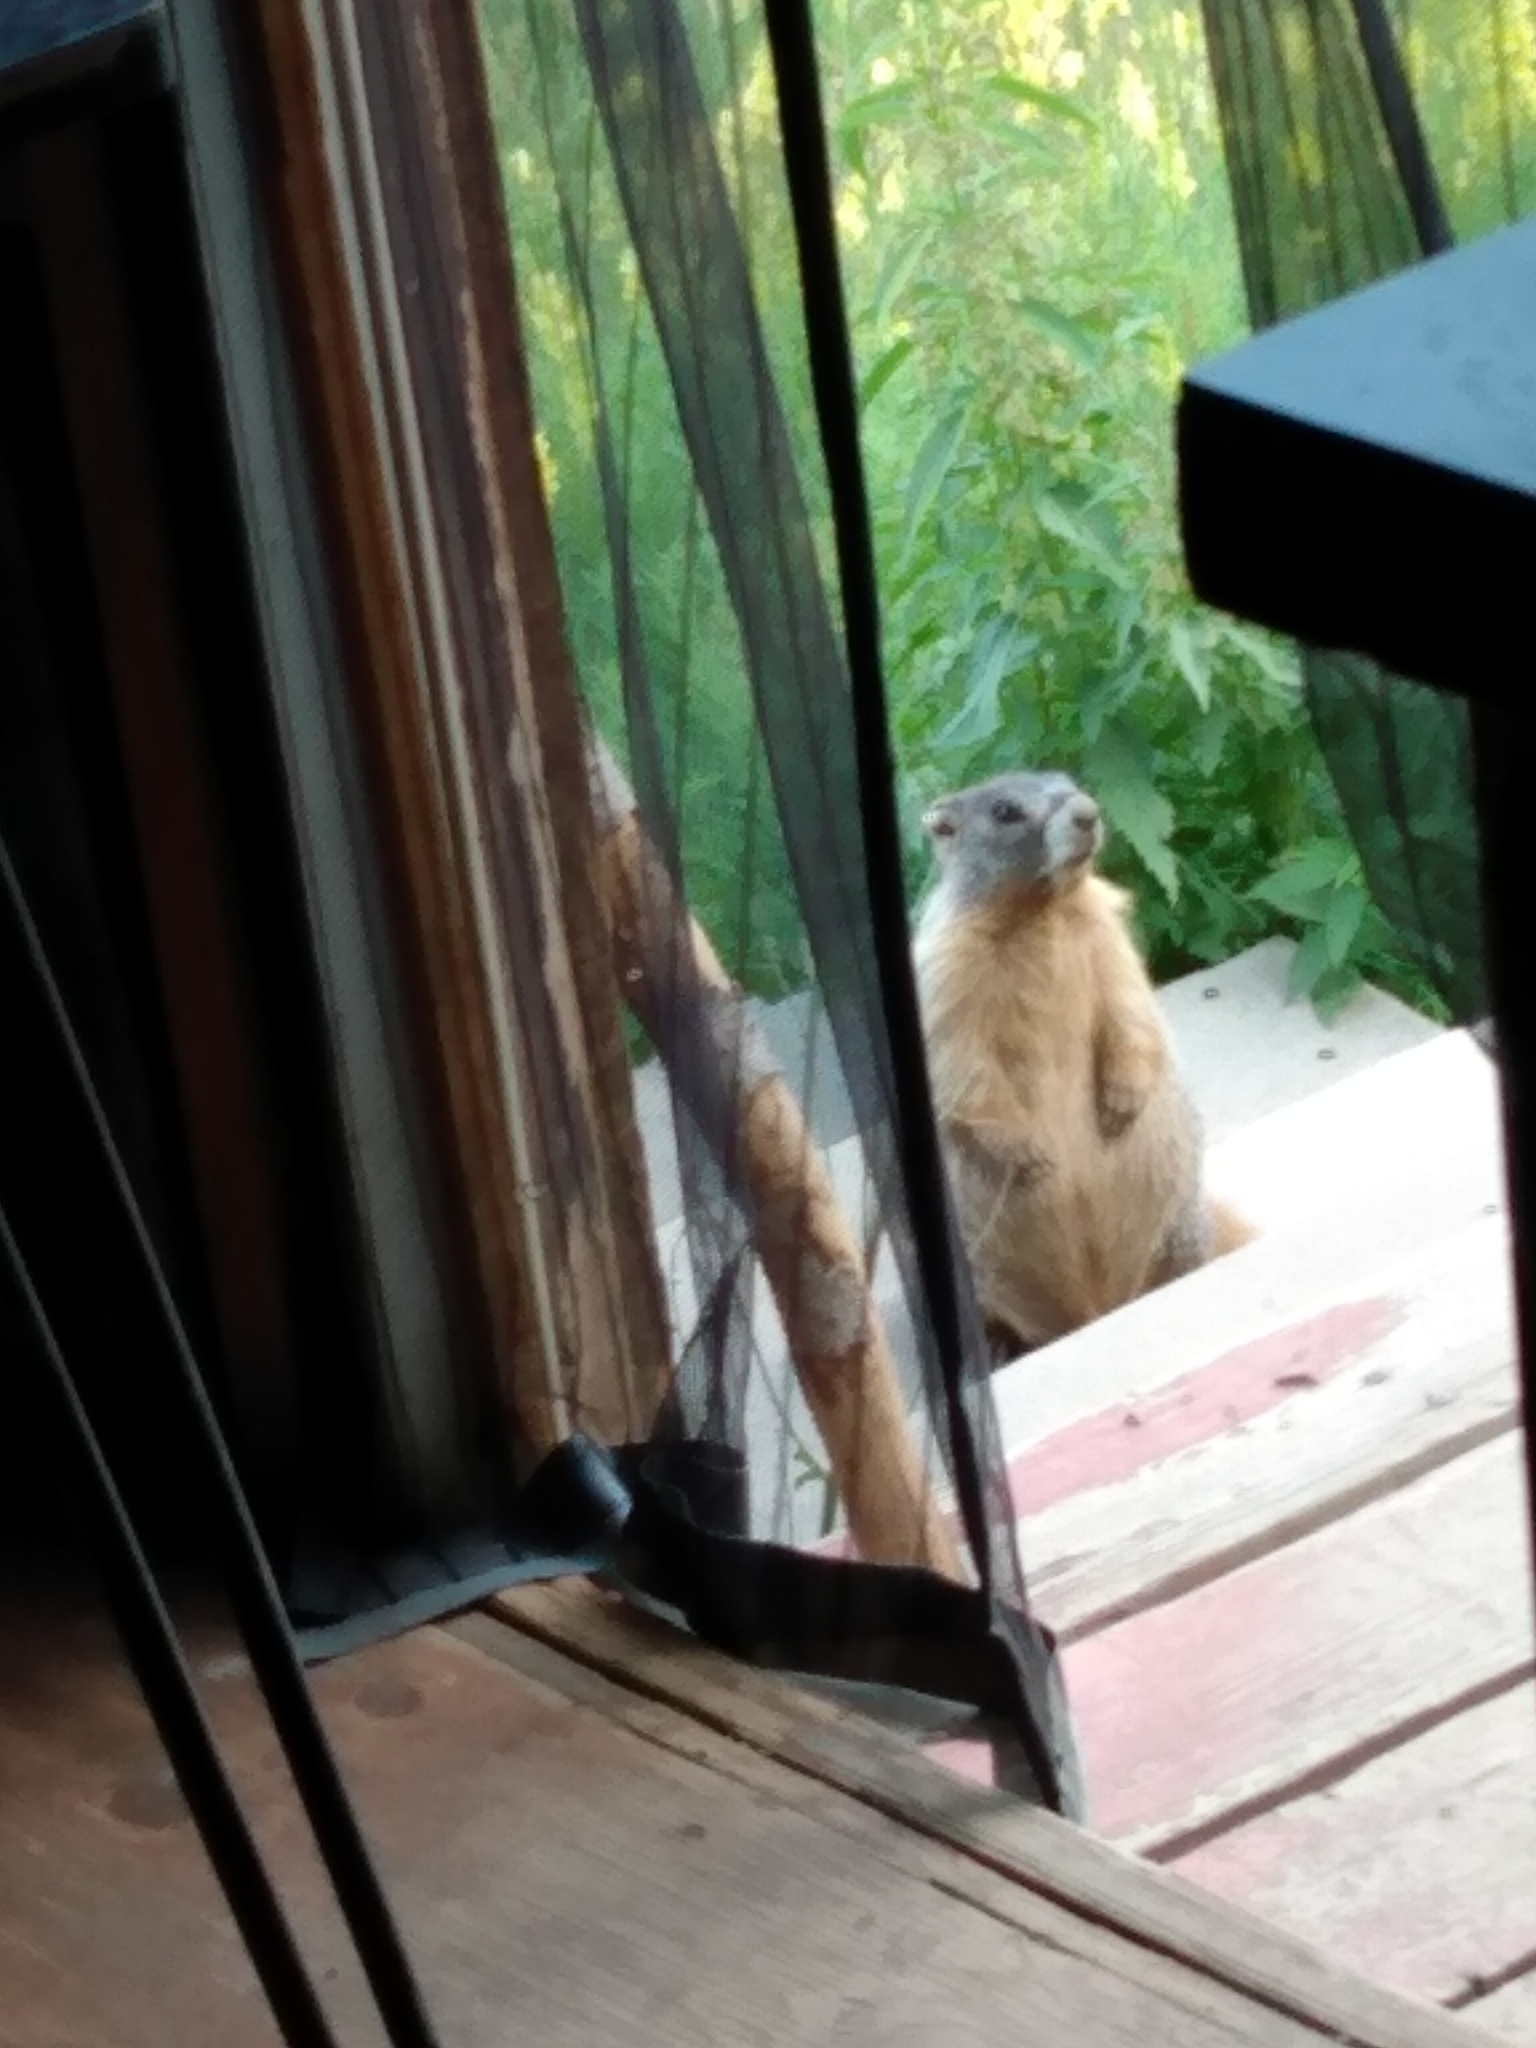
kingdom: Animalia
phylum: Chordata
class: Mammalia
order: Rodentia
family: Sciuridae
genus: Marmota
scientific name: Marmota flaviventris
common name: Yellow-bellied marmot
